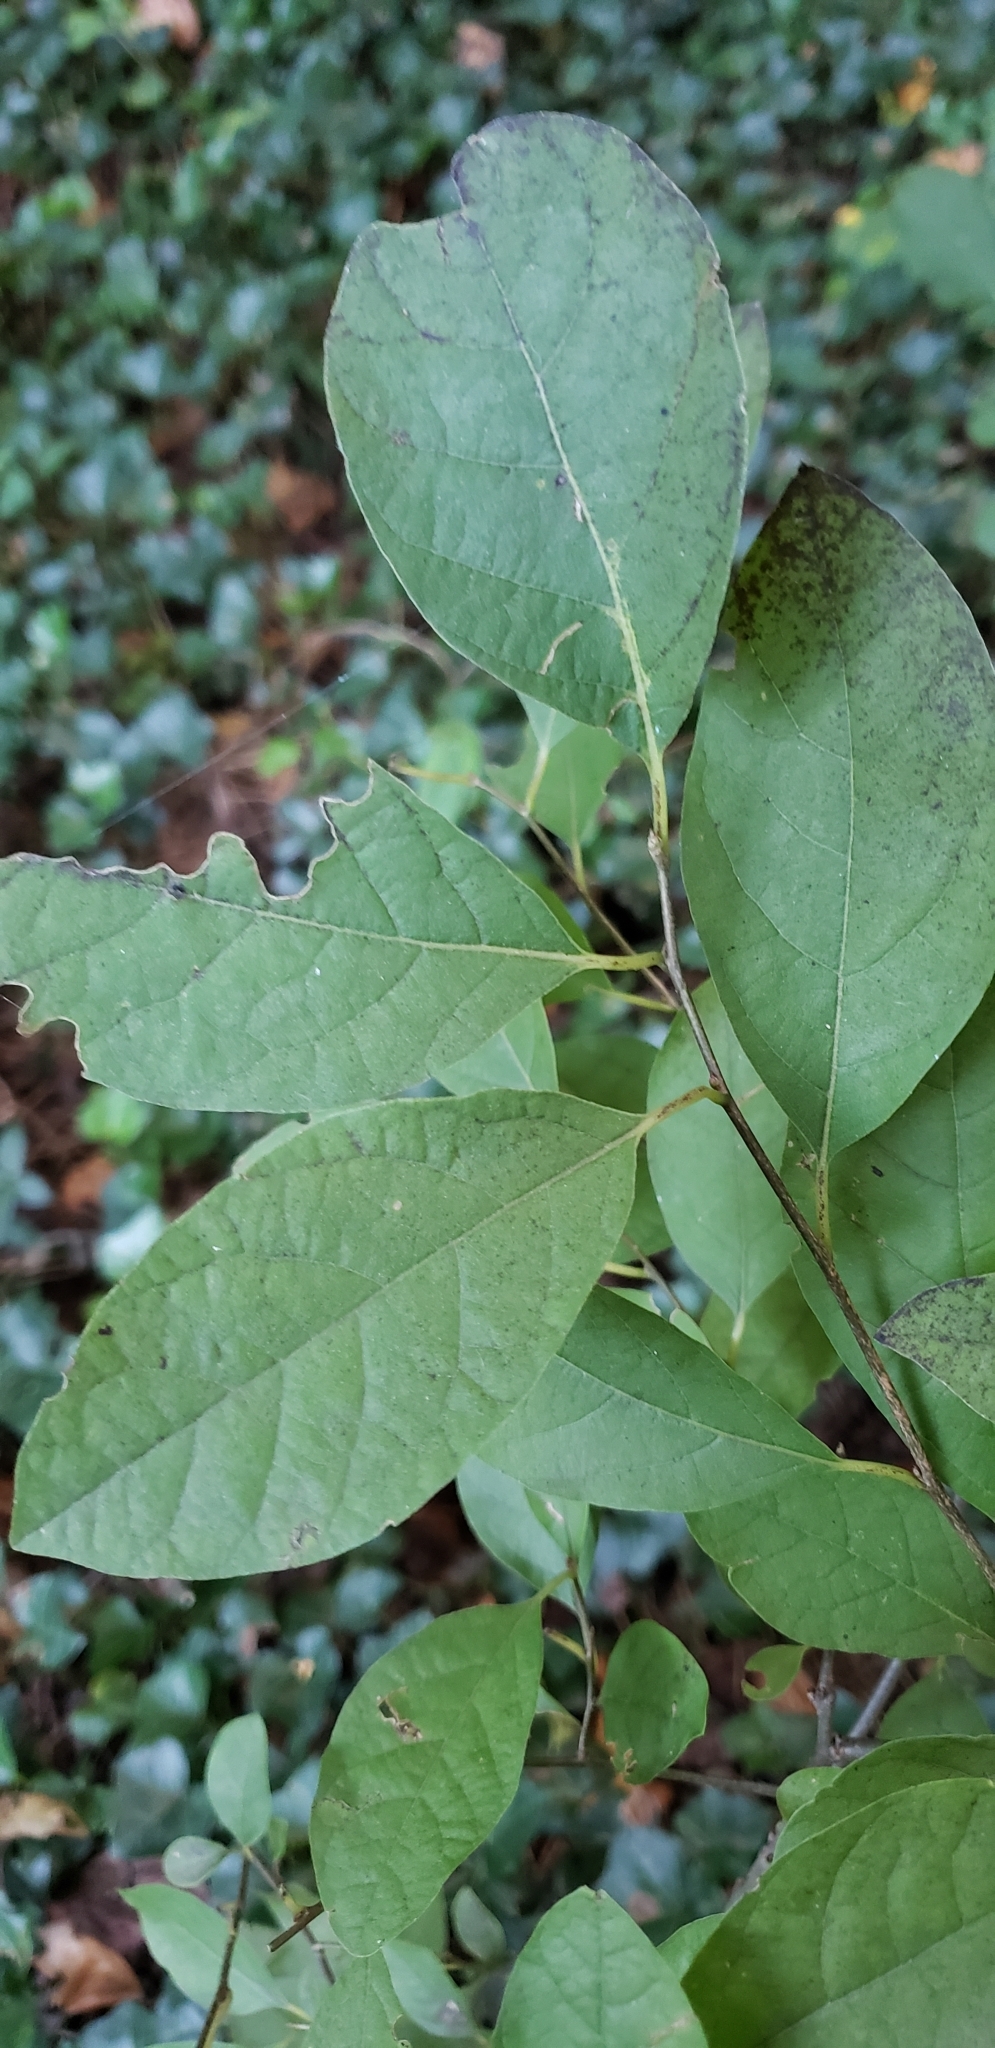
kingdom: Plantae
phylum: Tracheophyta
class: Magnoliopsida
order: Laurales
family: Lauraceae
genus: Lindera
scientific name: Lindera benzoin
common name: Spicebush
